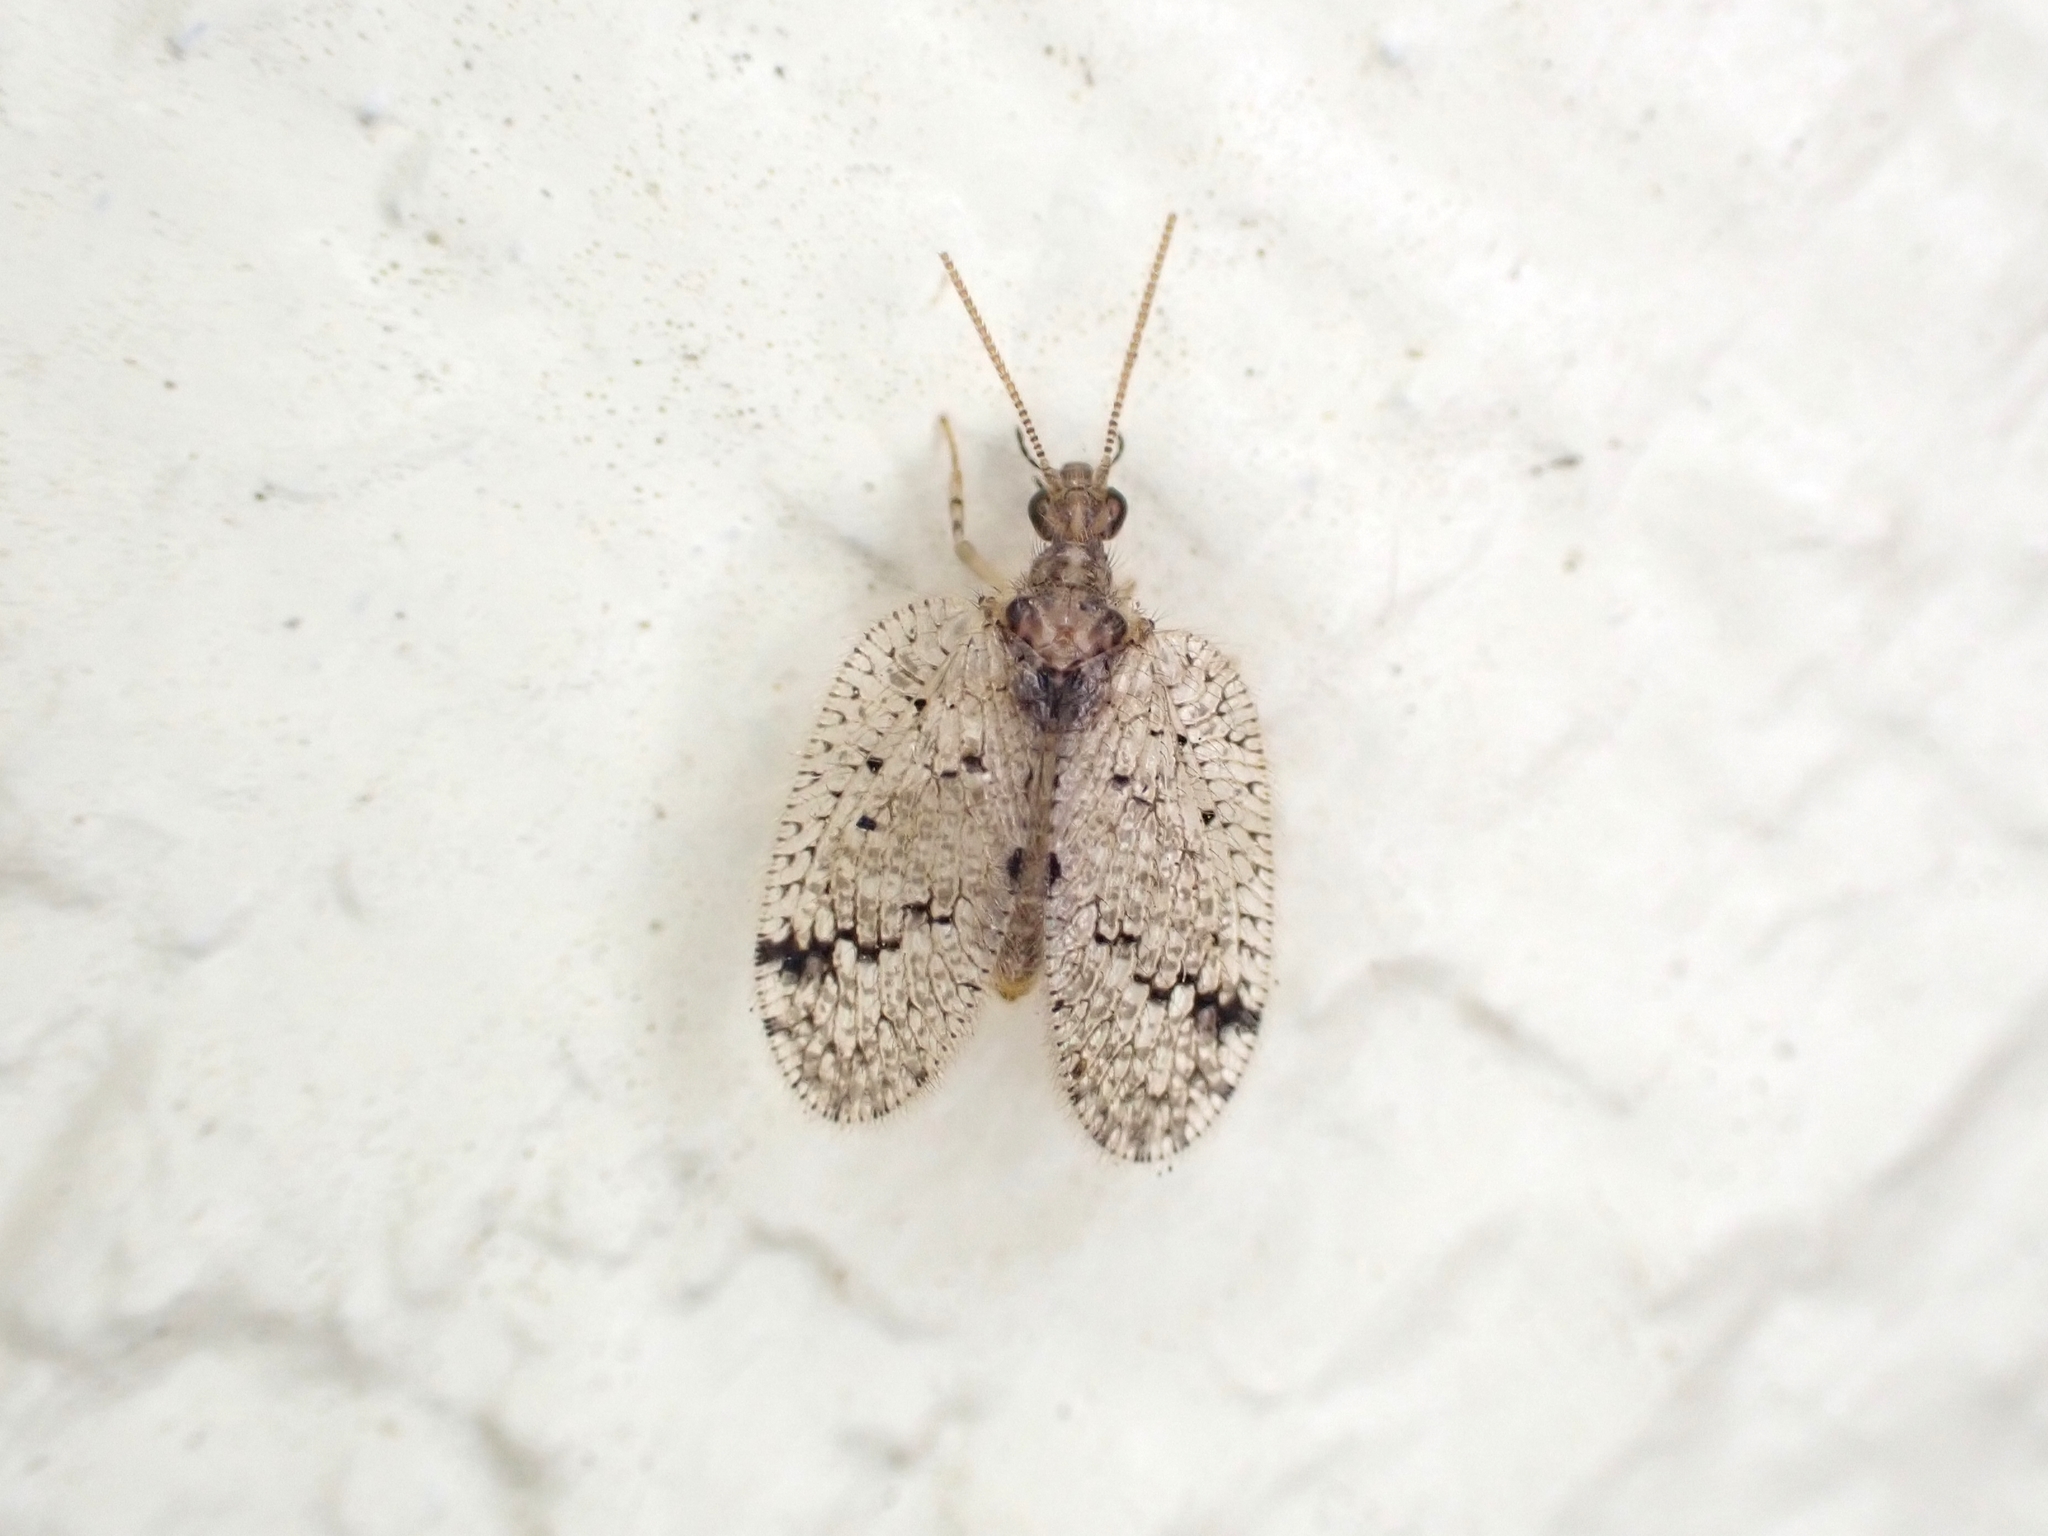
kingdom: Animalia
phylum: Arthropoda
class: Insecta
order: Neuroptera
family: Hemerobiidae
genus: Psectra
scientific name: Psectra nakaharai
